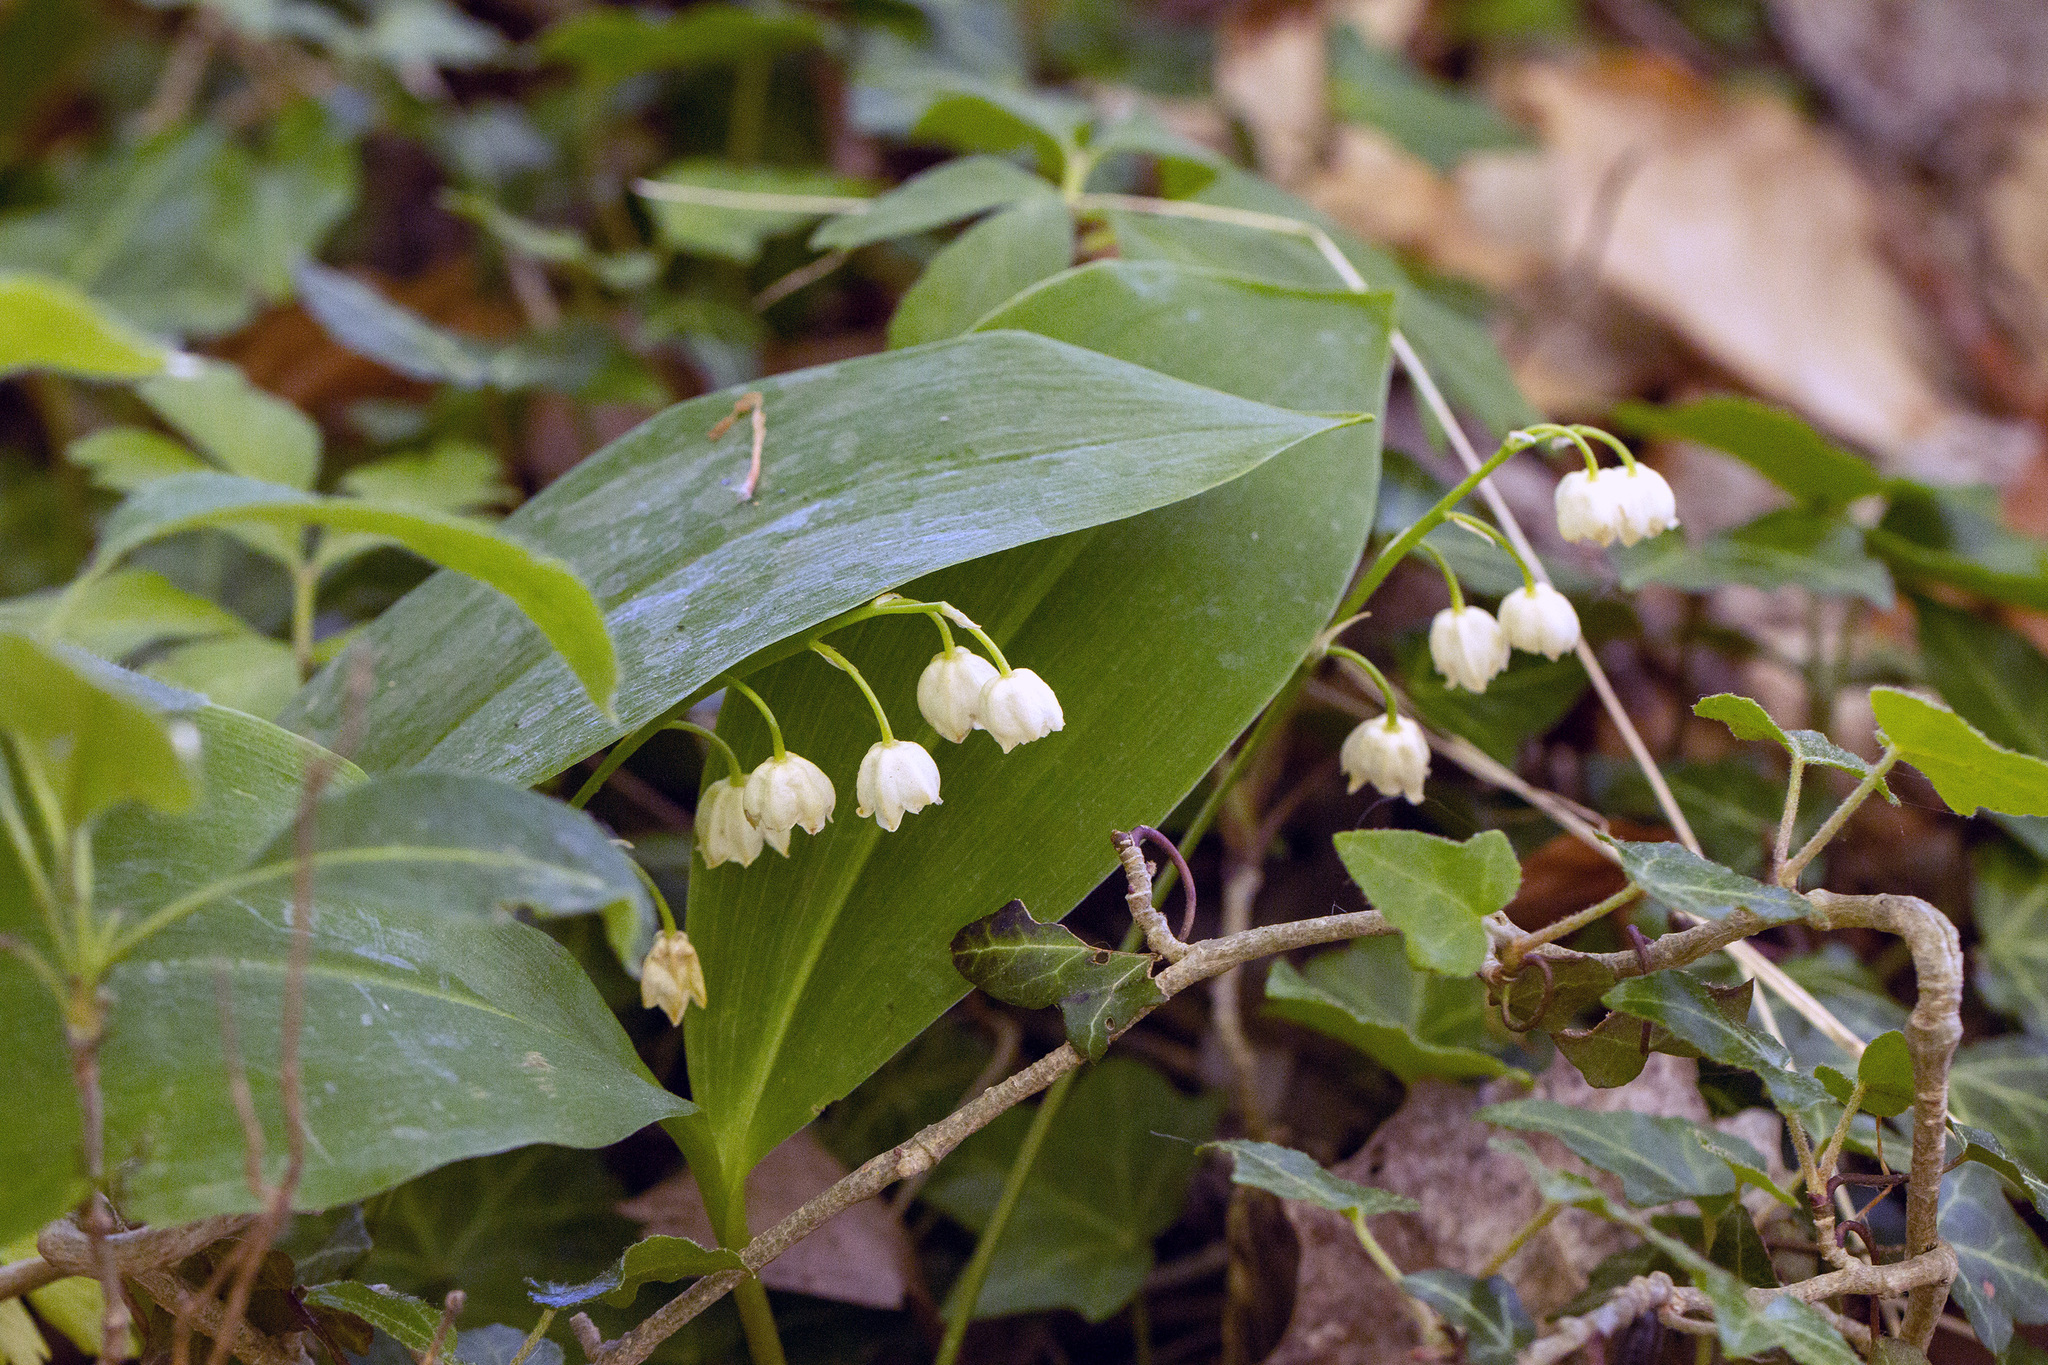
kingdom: Plantae
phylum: Tracheophyta
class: Liliopsida
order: Asparagales
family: Asparagaceae
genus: Convallaria
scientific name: Convallaria majalis
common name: Lily-of-the-valley
